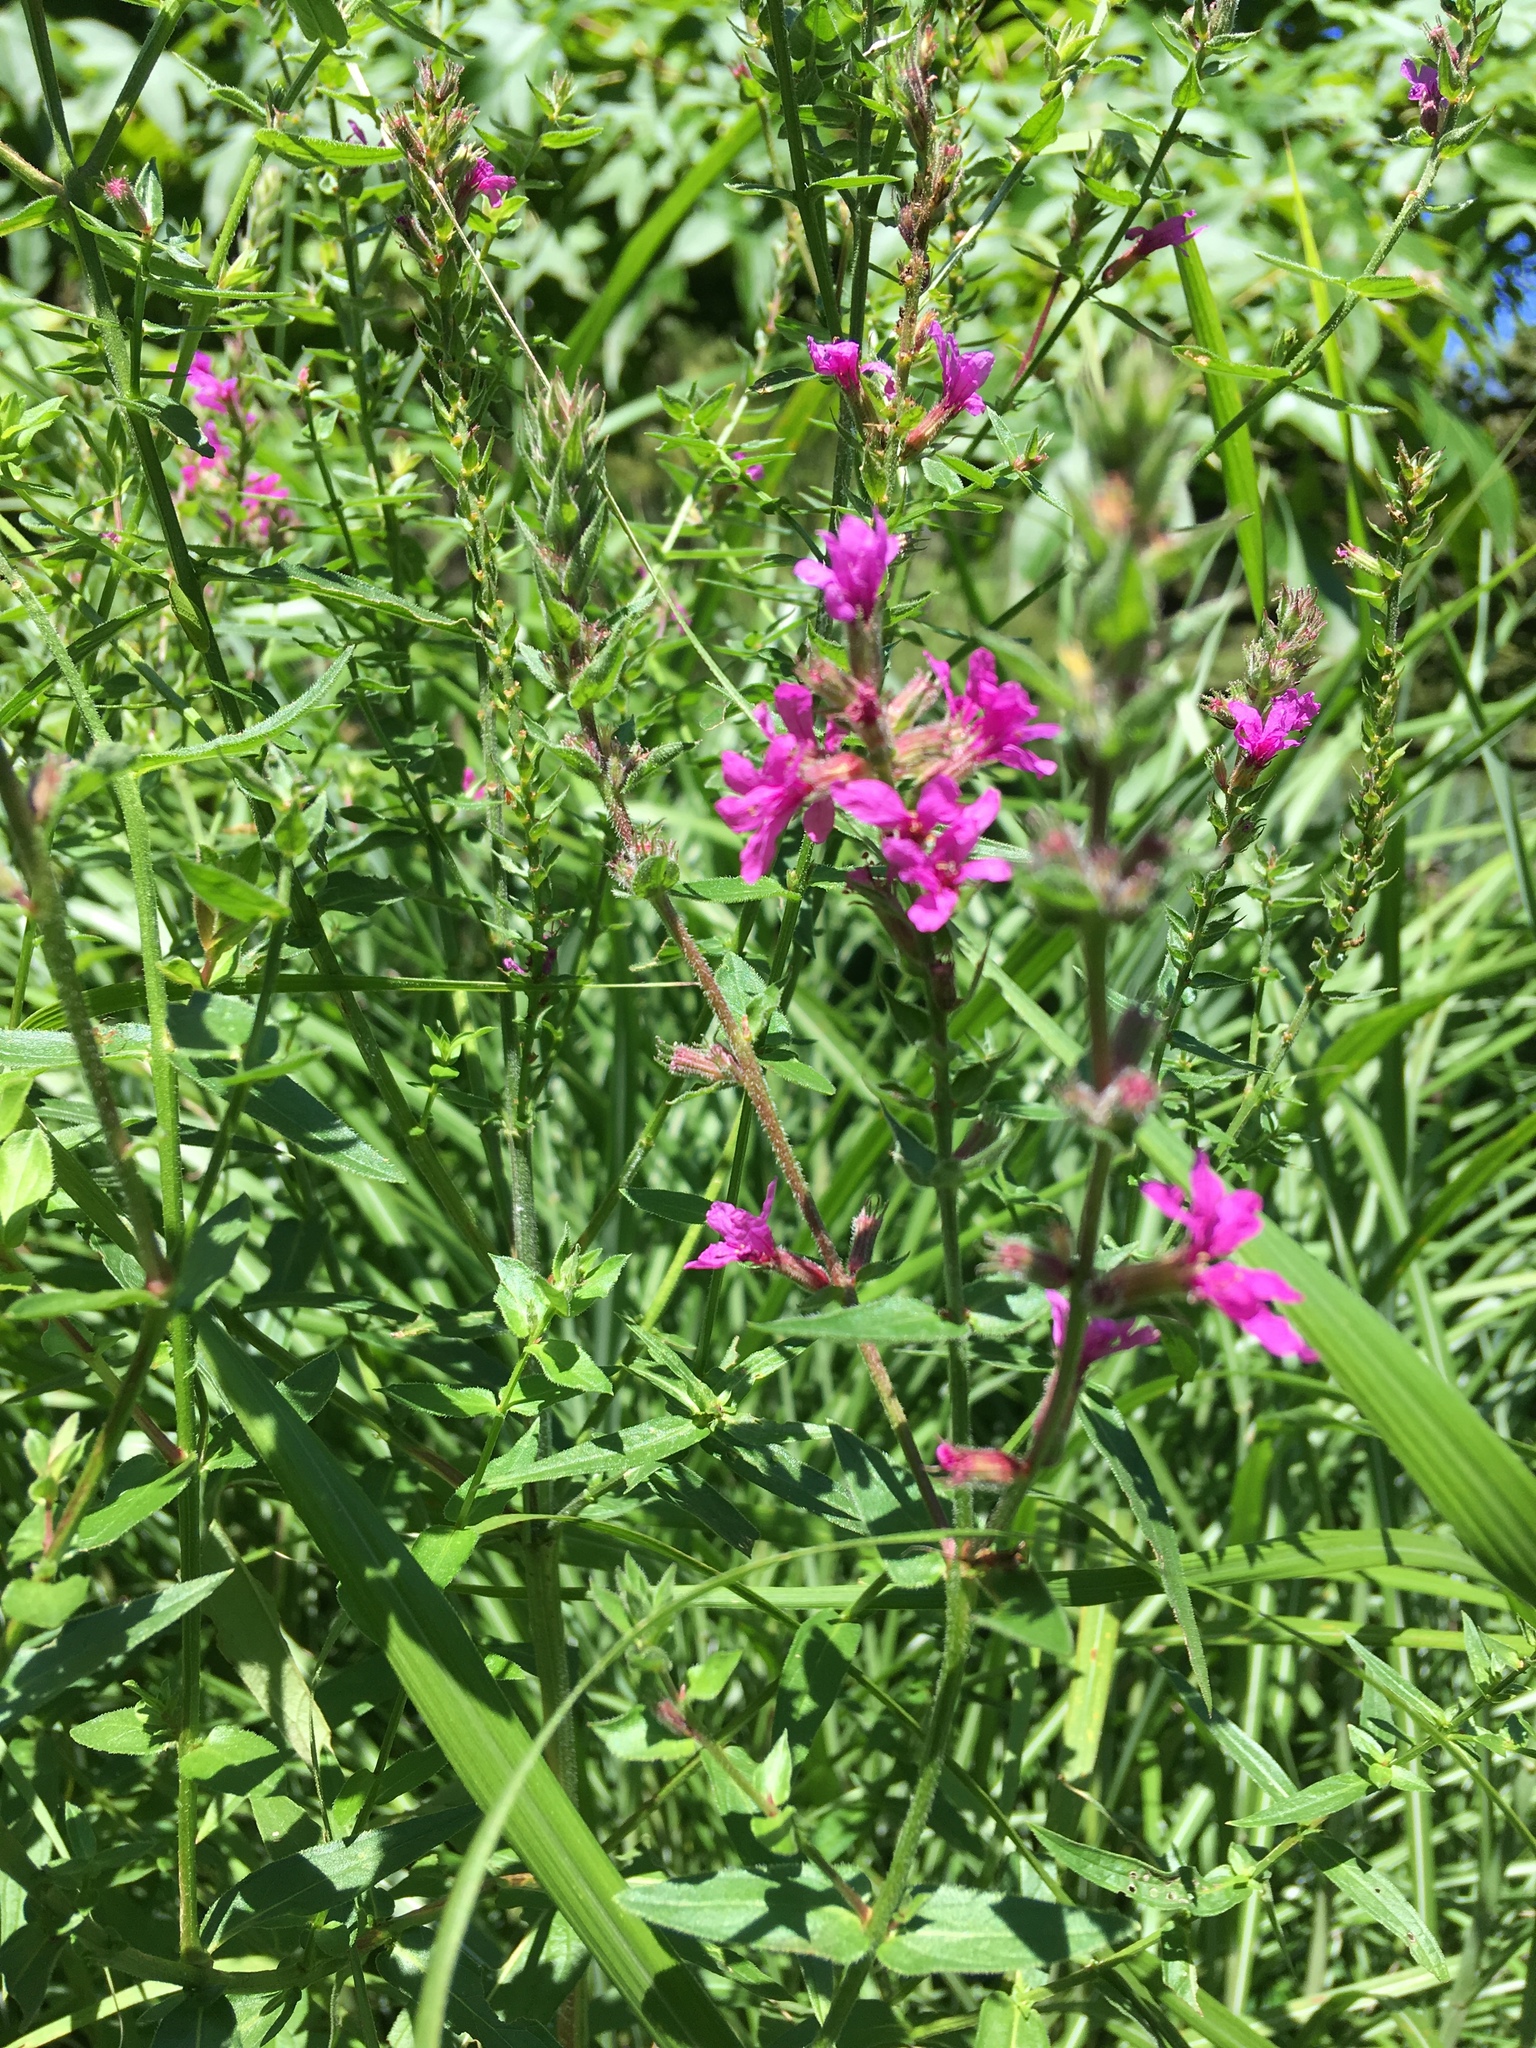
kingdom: Plantae
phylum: Tracheophyta
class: Magnoliopsida
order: Myrtales
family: Lythraceae
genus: Lythrum
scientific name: Lythrum salicaria
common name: Purple loosestrife
